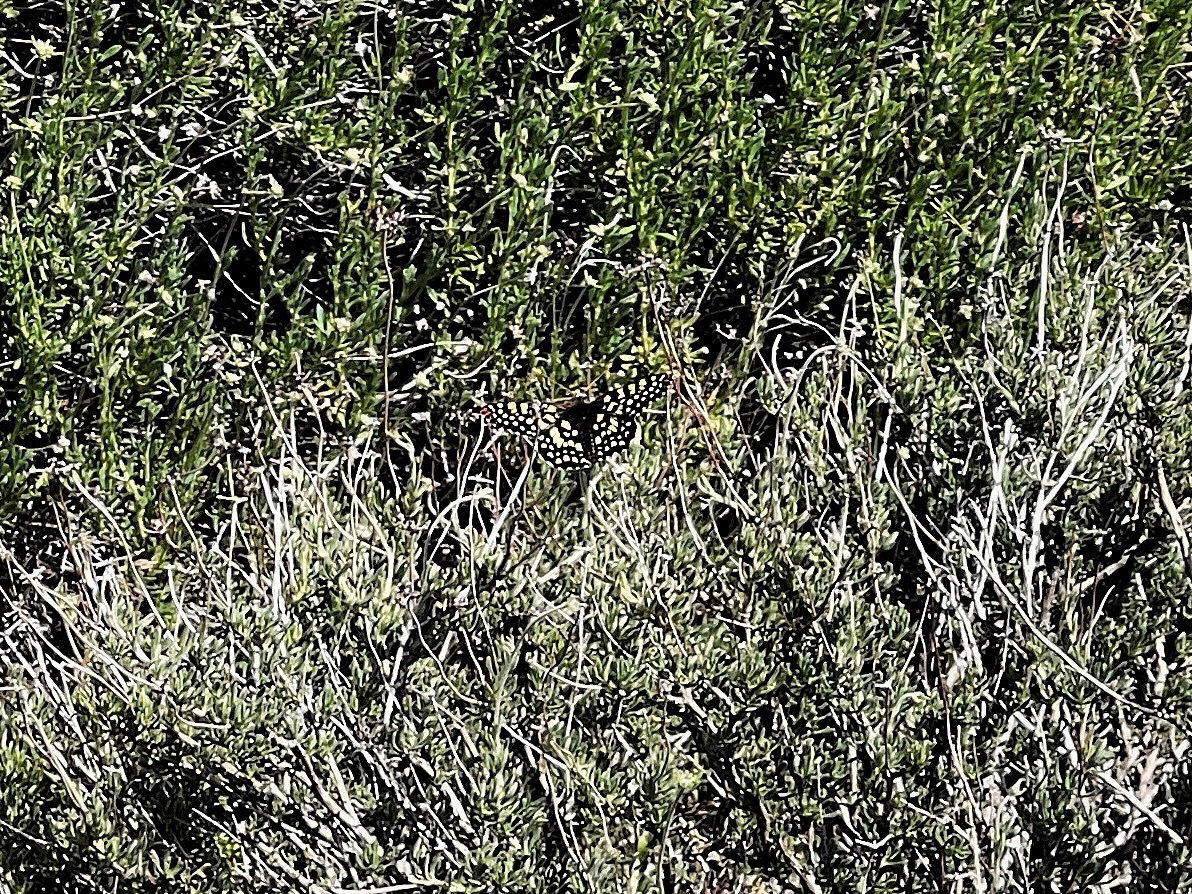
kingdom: Animalia
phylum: Arthropoda
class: Insecta
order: Lepidoptera
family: Nymphalidae
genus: Occidryas
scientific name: Occidryas chalcedona
